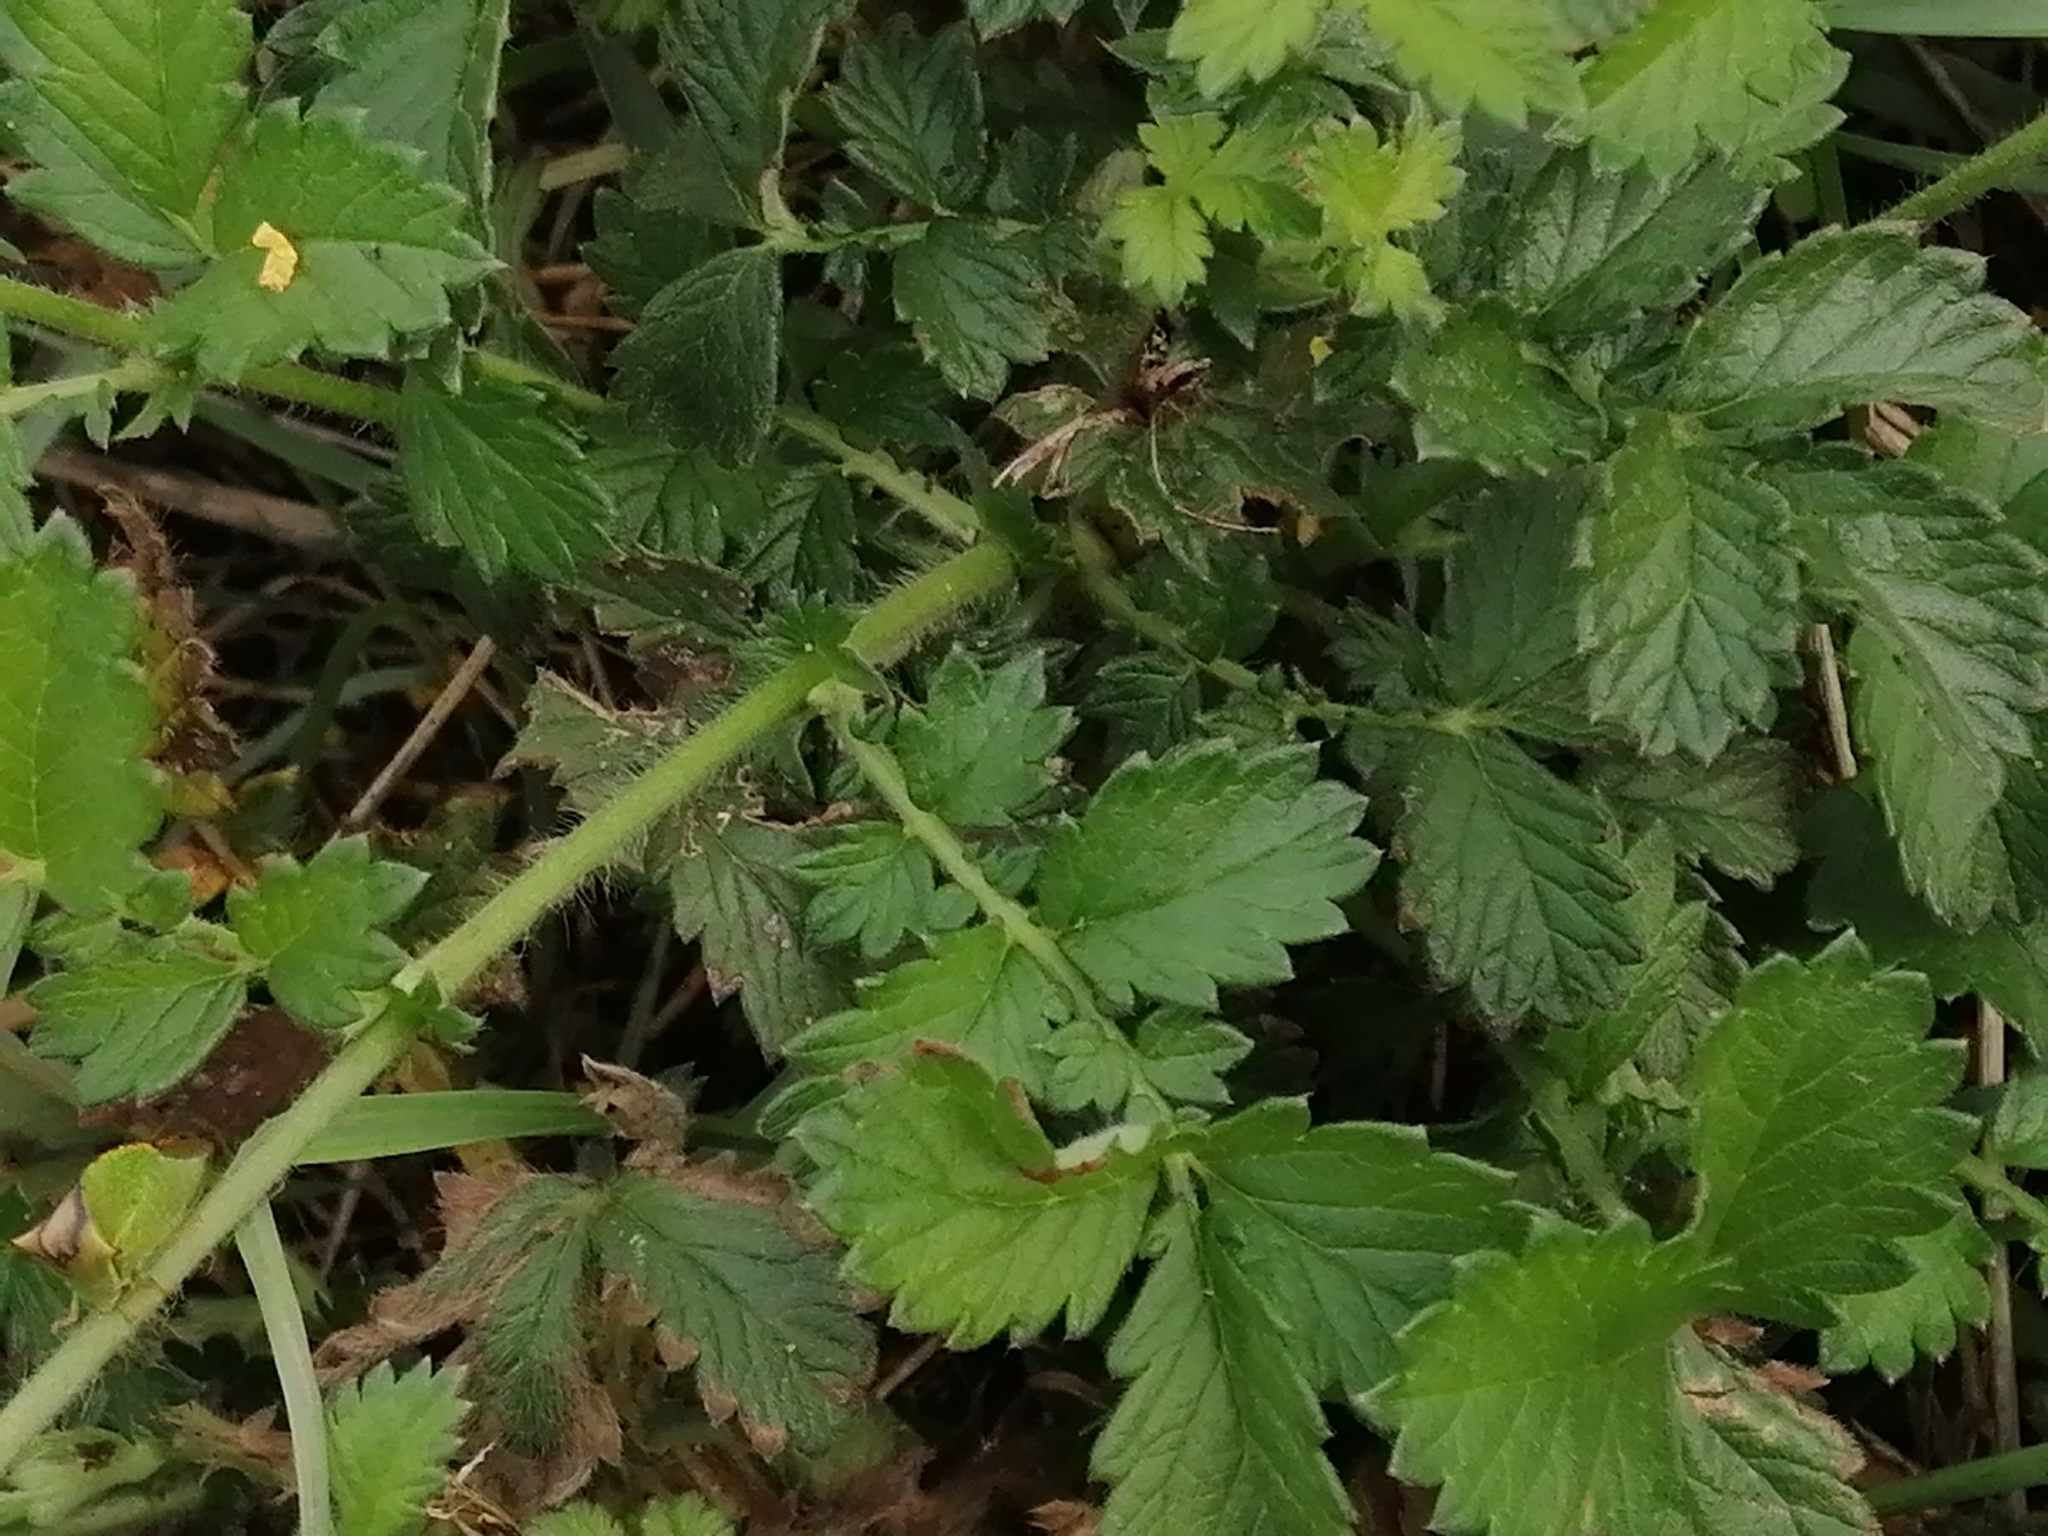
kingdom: Plantae
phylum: Tracheophyta
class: Magnoliopsida
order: Rosales
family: Rosaceae
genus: Agrimonia
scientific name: Agrimonia eupatoria
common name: Agrimony
